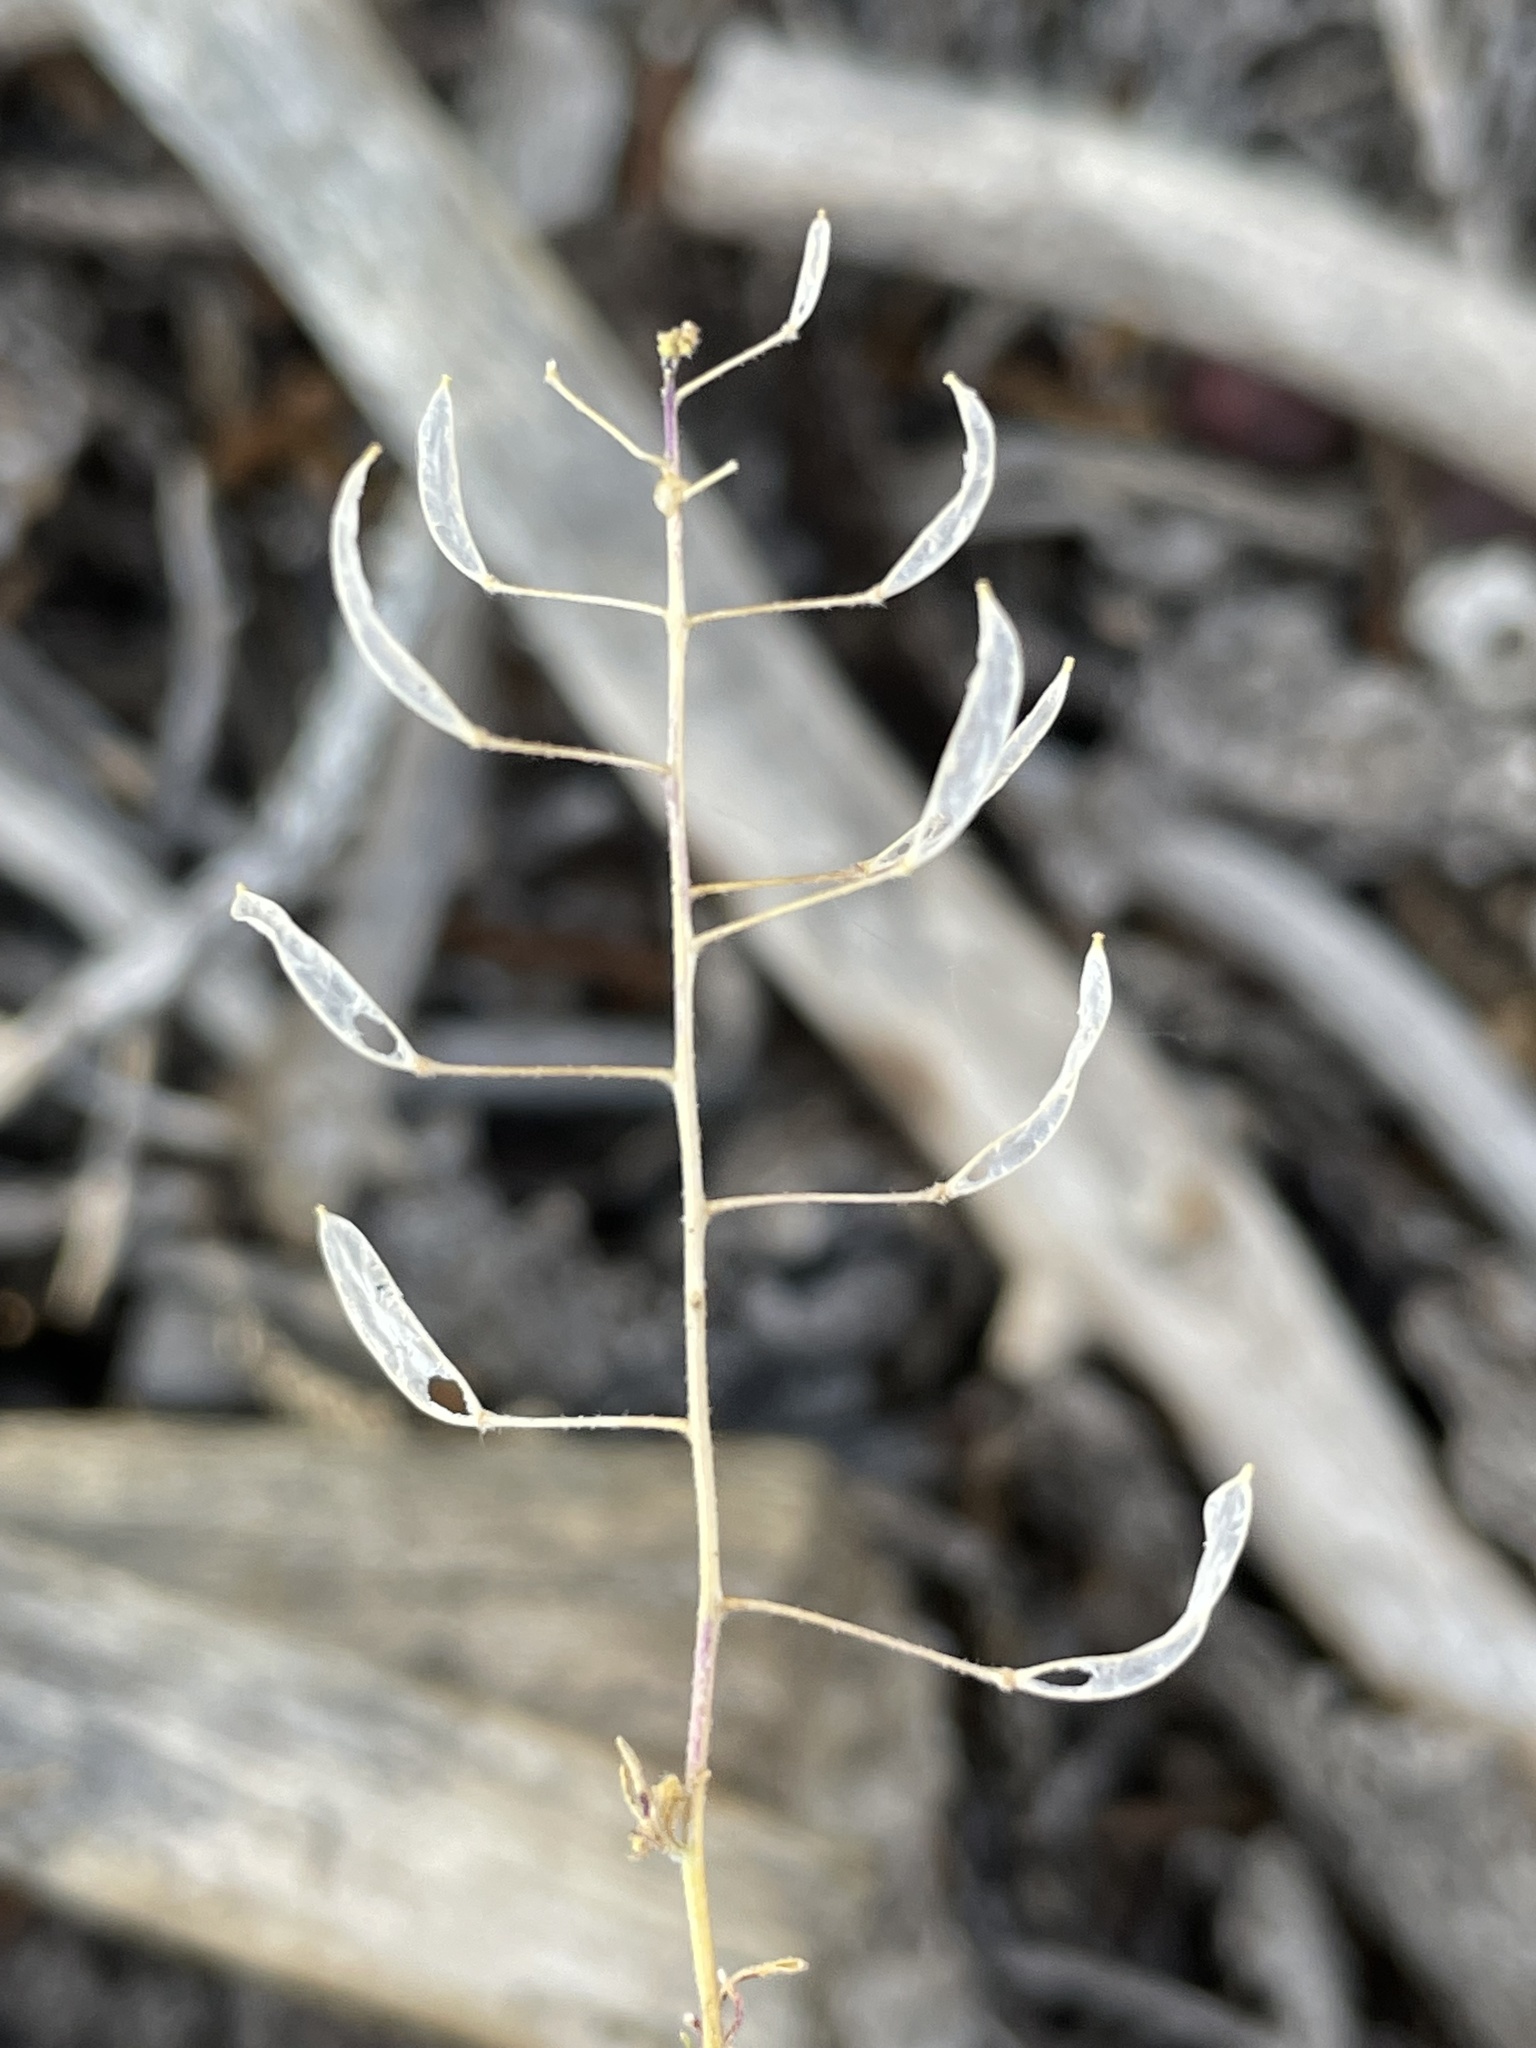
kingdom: Plantae
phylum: Tracheophyta
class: Magnoliopsida
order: Brassicales
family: Brassicaceae
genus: Descurainia
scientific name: Descurainia pinnata
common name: Western tansy mustard
